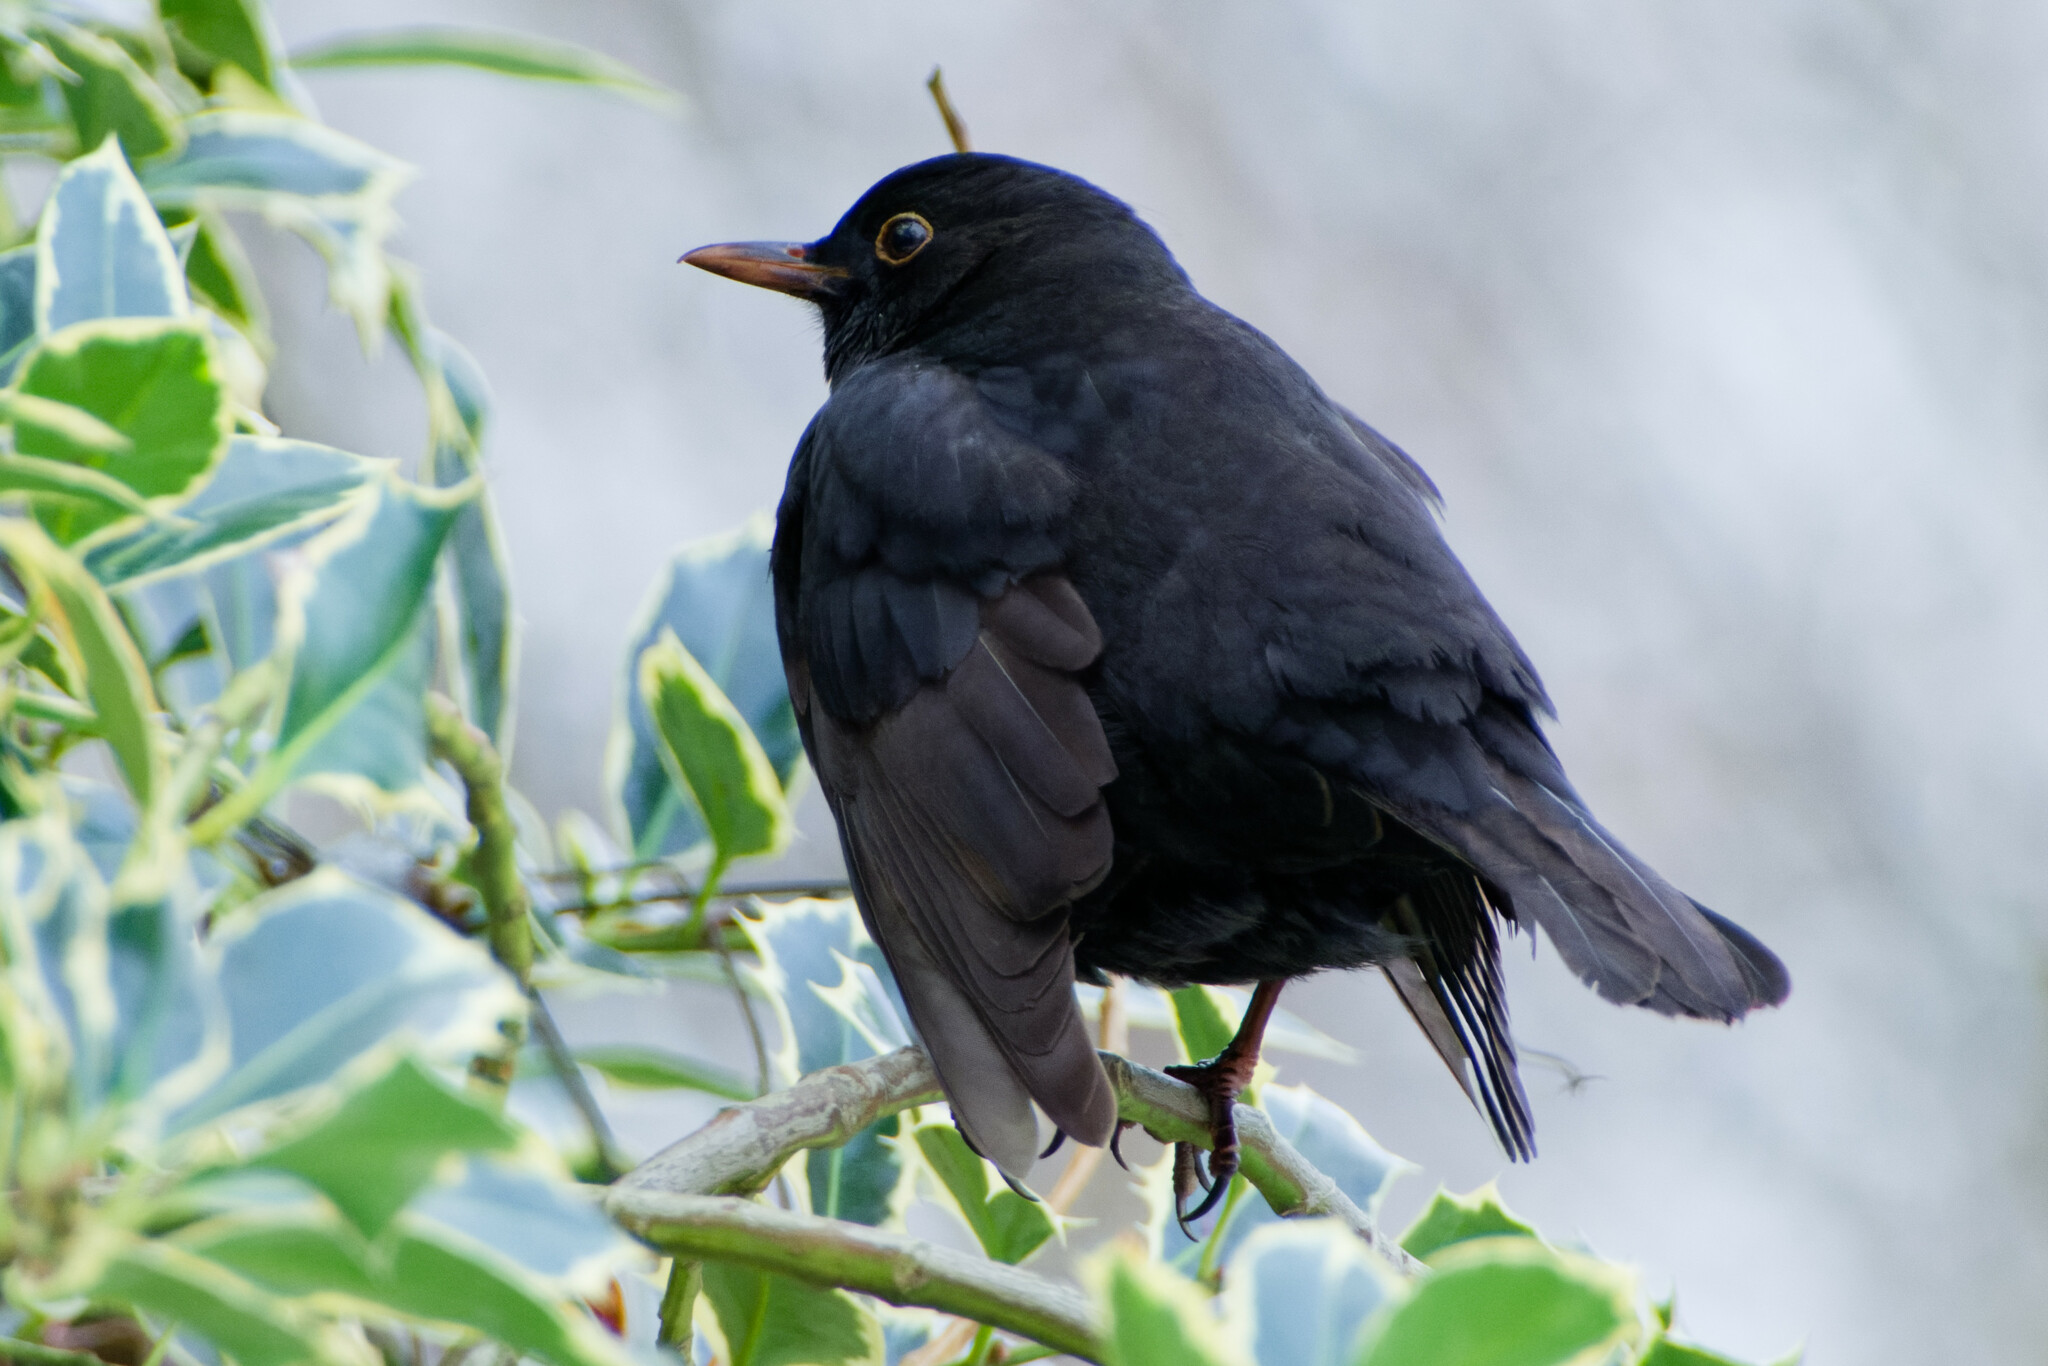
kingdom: Animalia
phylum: Chordata
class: Aves
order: Passeriformes
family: Turdidae
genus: Turdus
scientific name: Turdus merula
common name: Common blackbird
